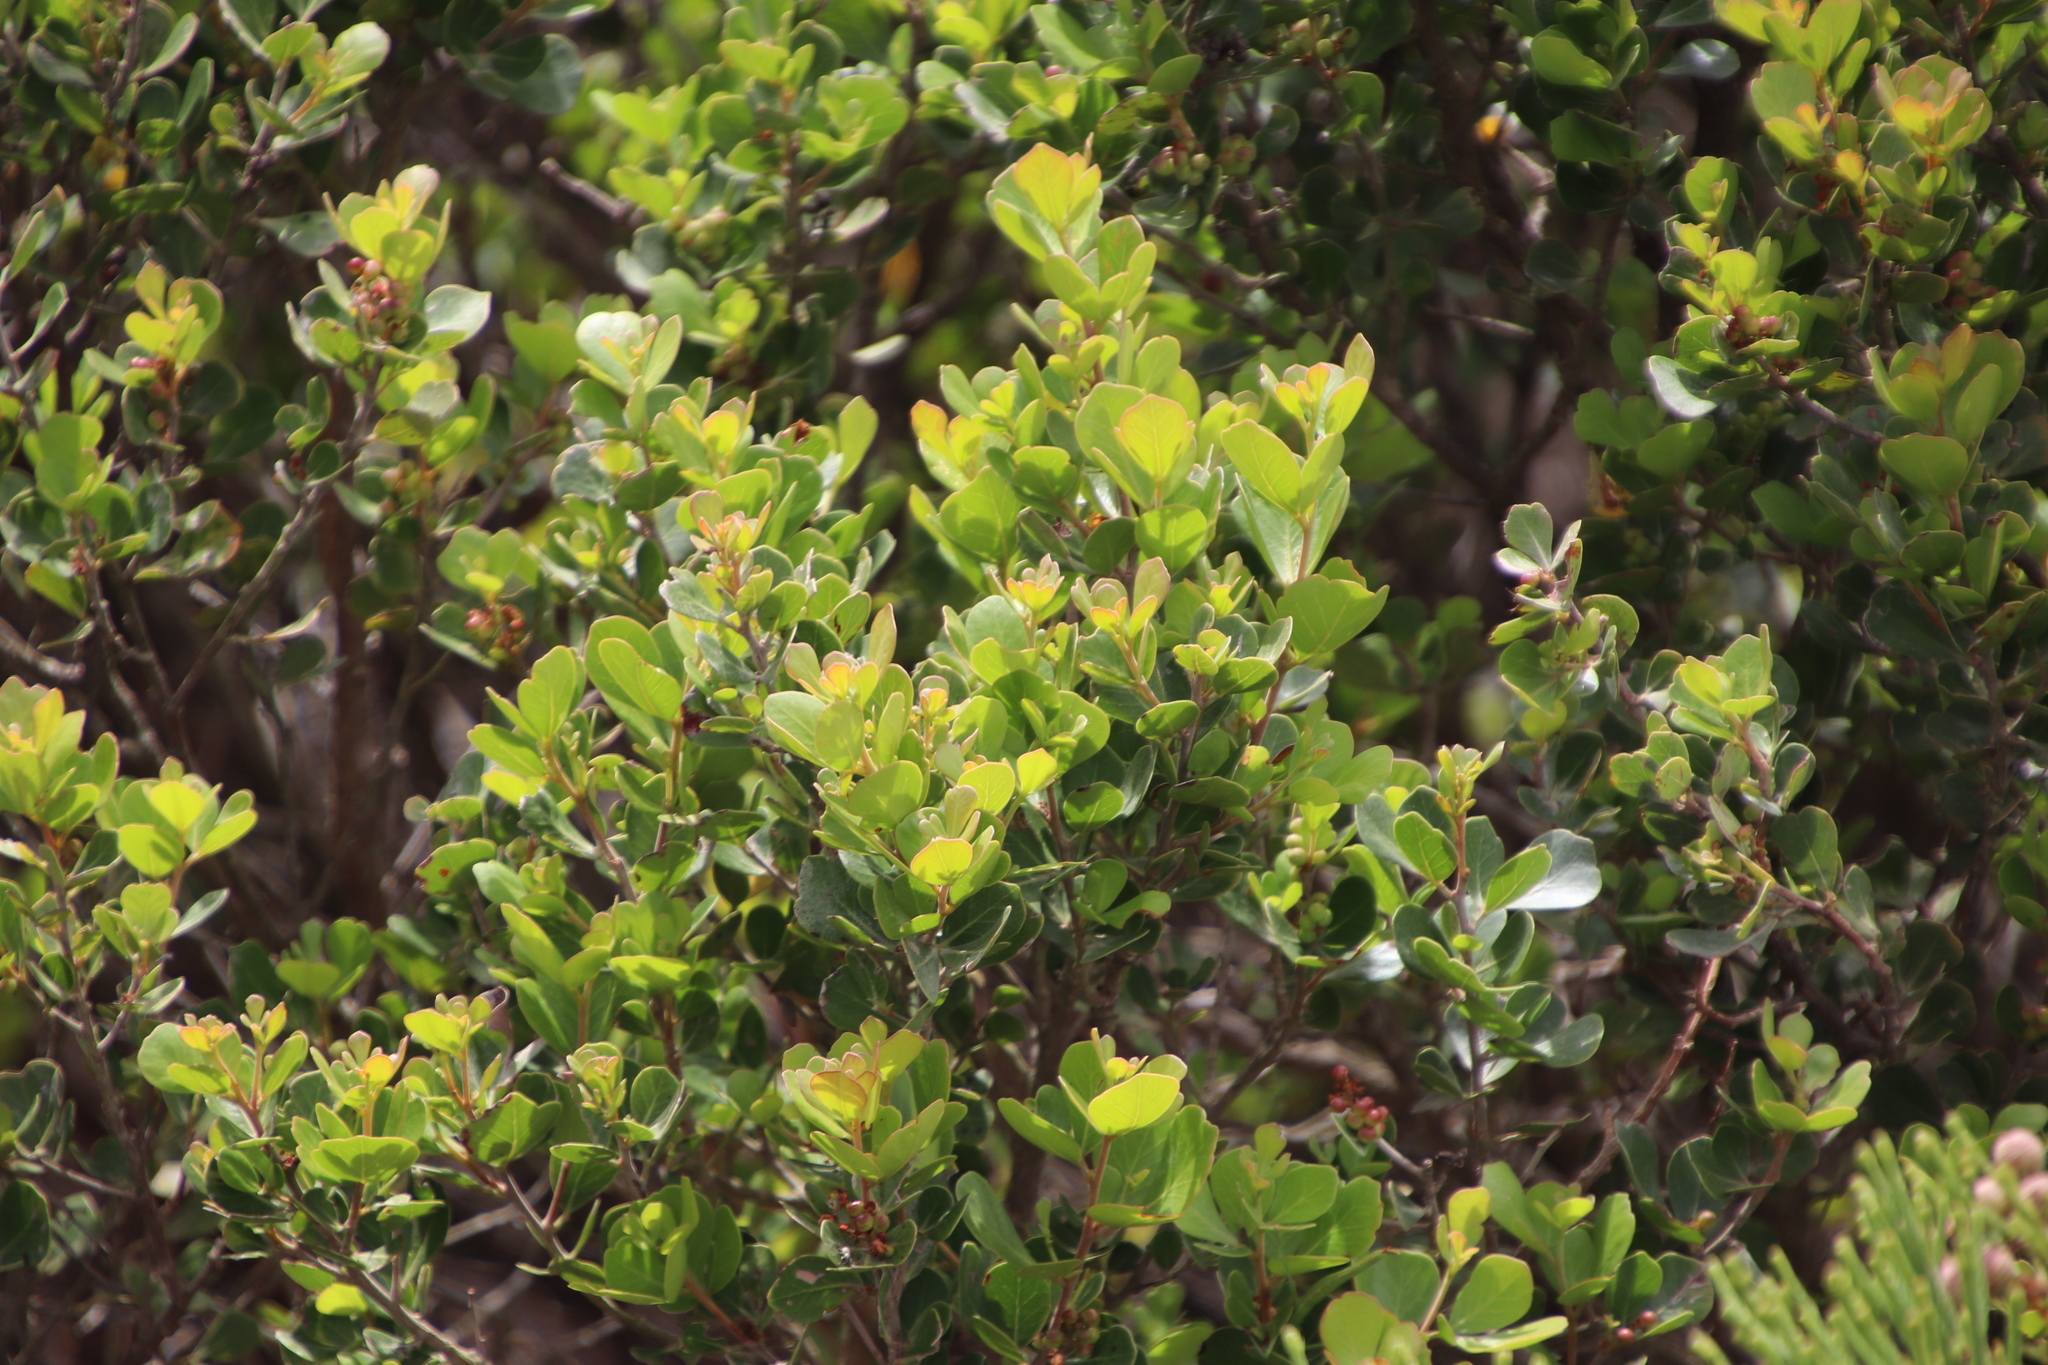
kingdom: Plantae
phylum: Tracheophyta
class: Magnoliopsida
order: Sapindales
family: Anacardiaceae
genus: Searsia
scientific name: Searsia lucida
